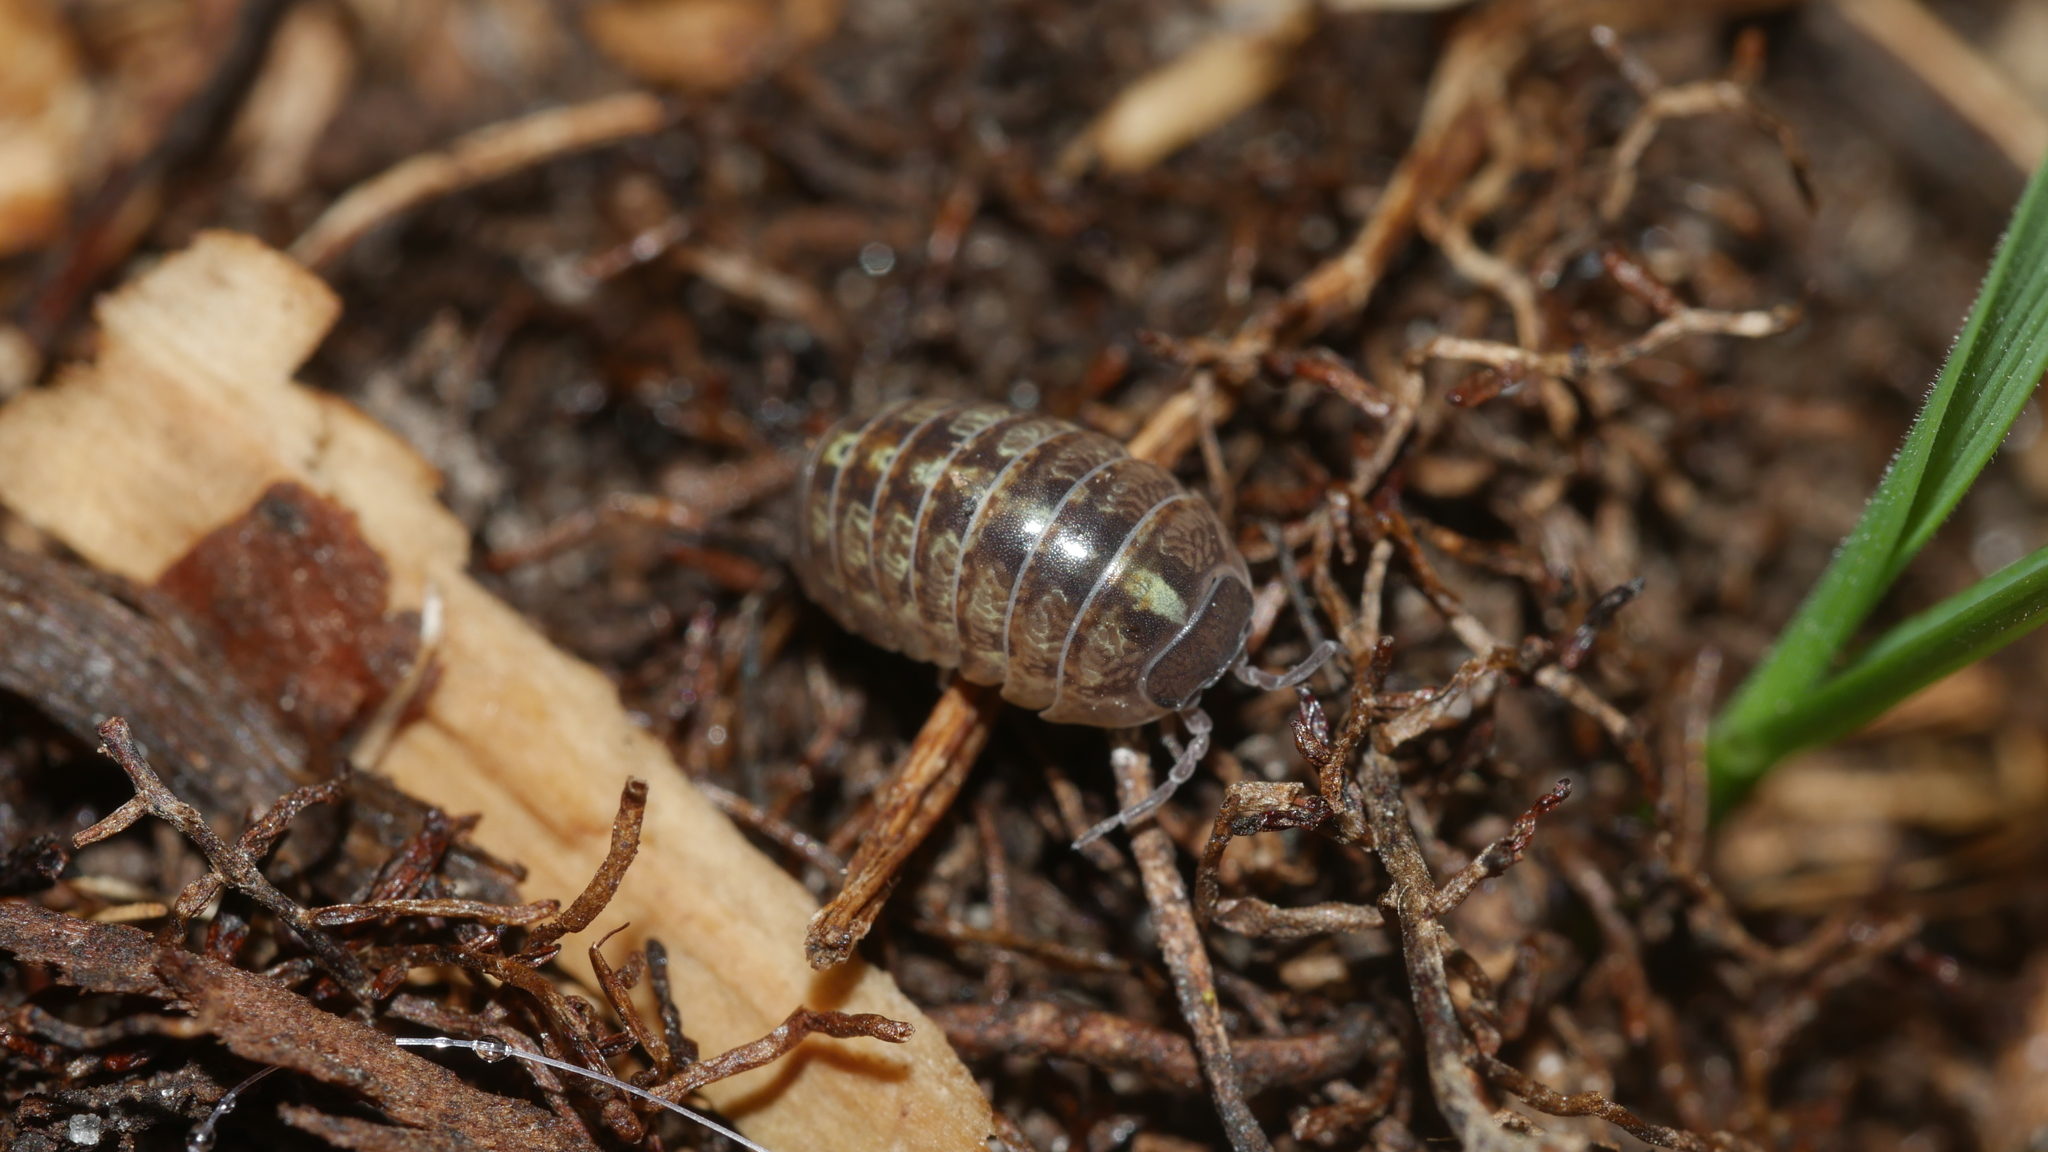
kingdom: Animalia
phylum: Arthropoda
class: Malacostraca
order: Isopoda
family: Armadillidiidae
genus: Armadillidium
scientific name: Armadillidium vulgare
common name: Common pill woodlouse
